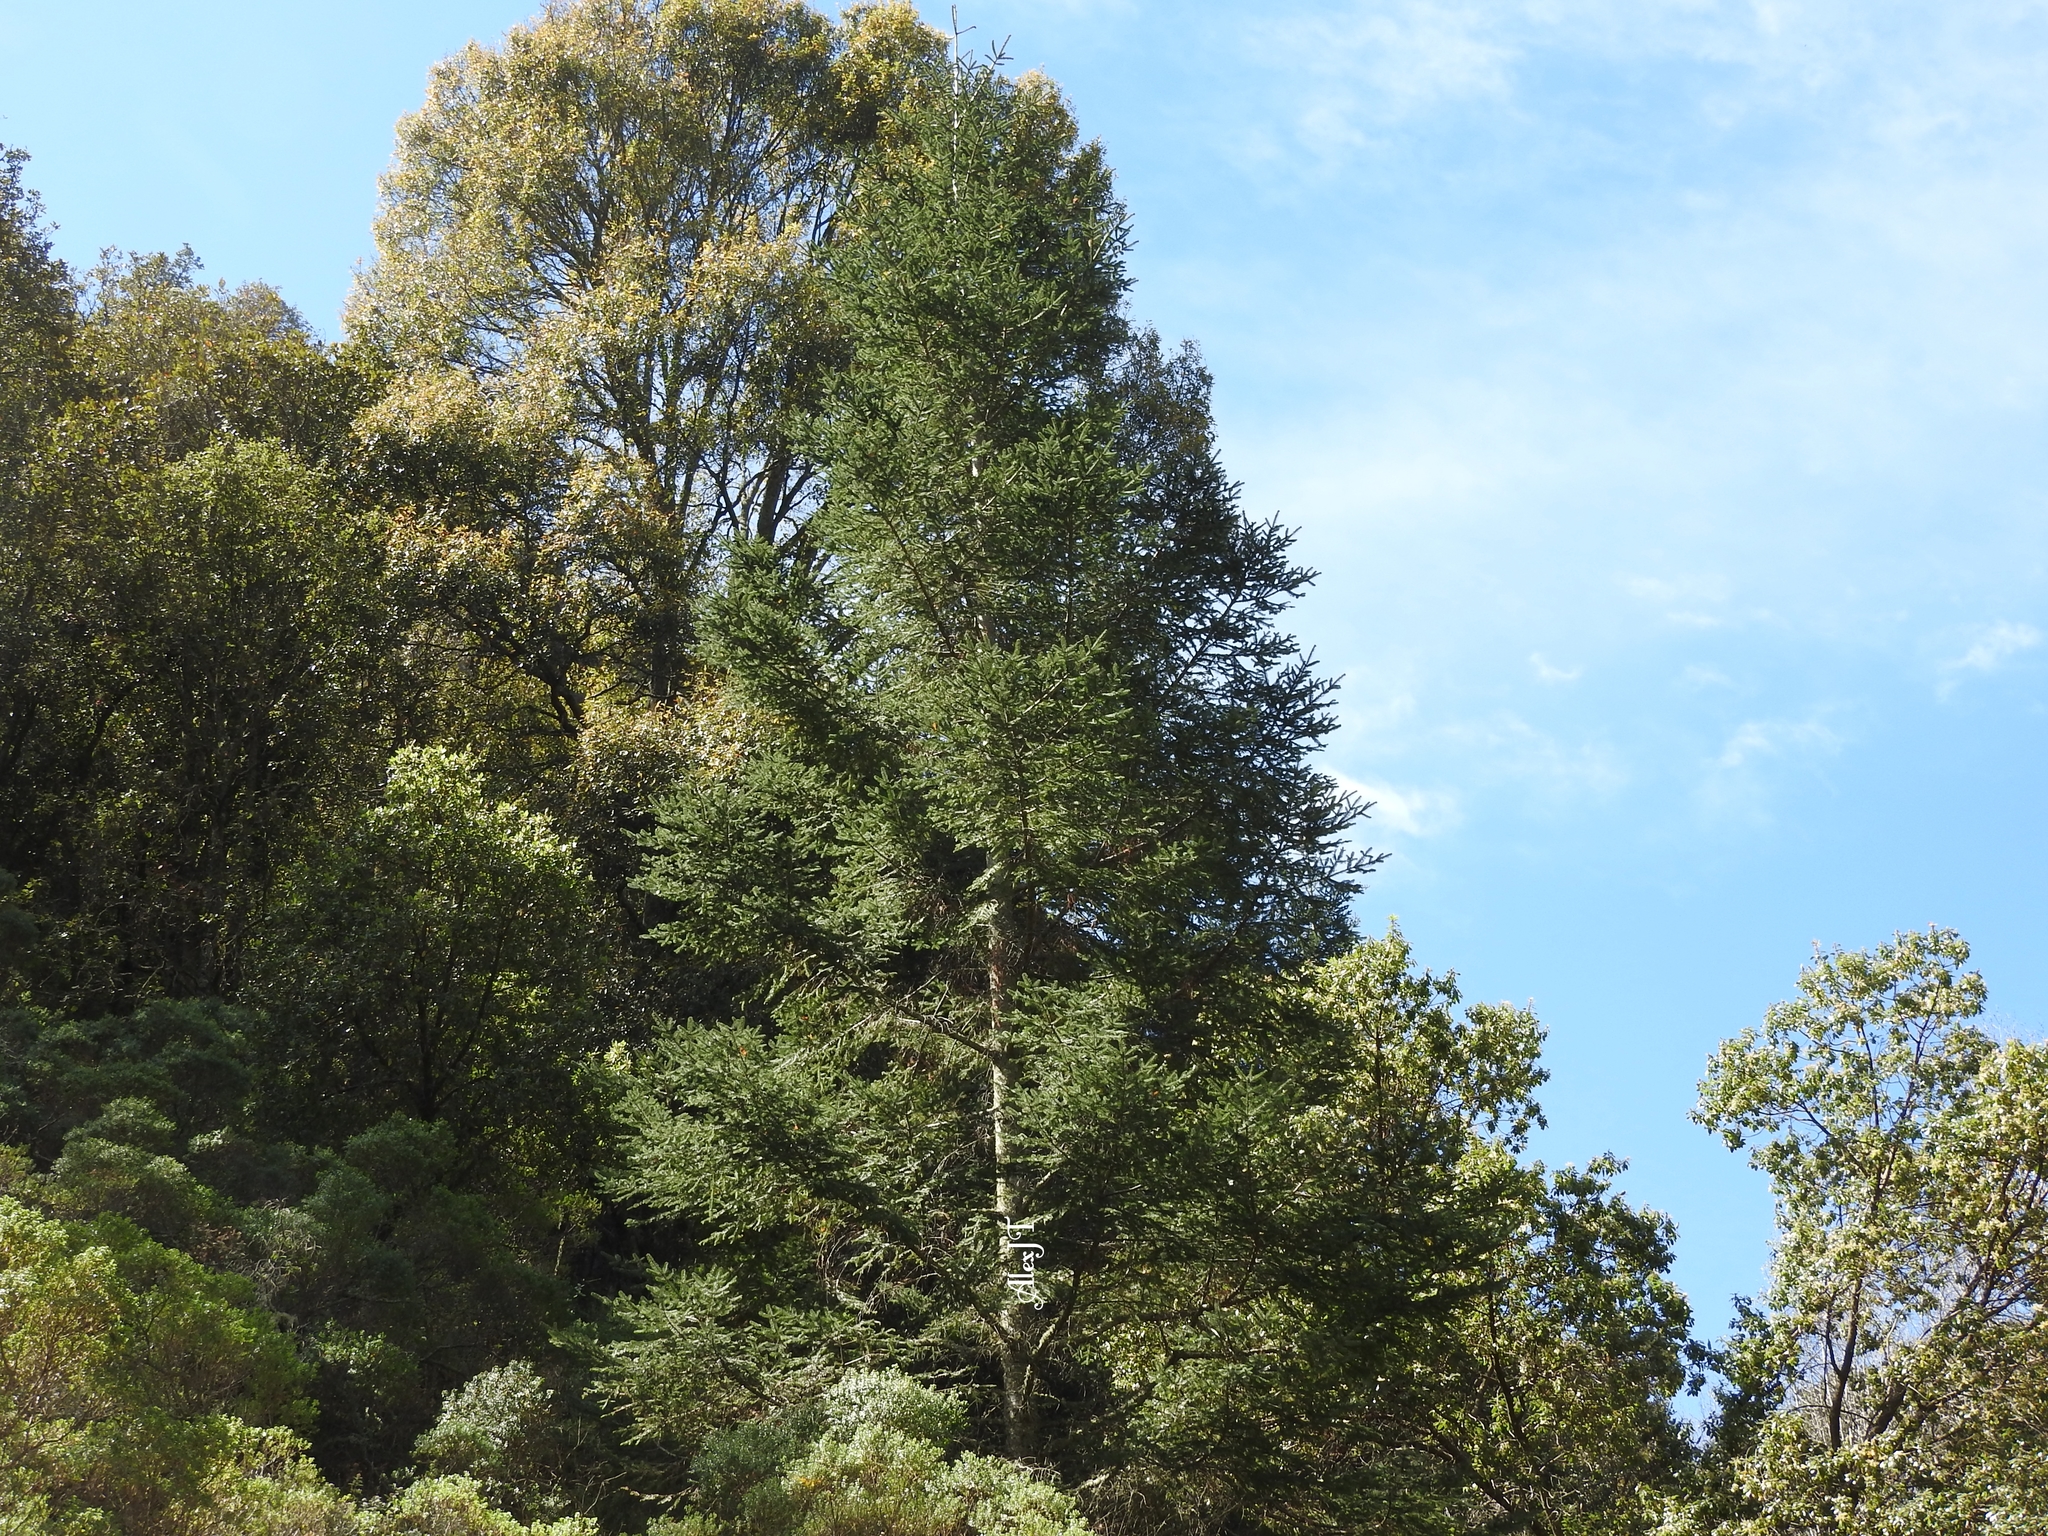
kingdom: Plantae
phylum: Tracheophyta
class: Pinopsida
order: Pinales
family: Pinaceae
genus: Abies
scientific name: Abies religiosa
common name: Sacred fir
